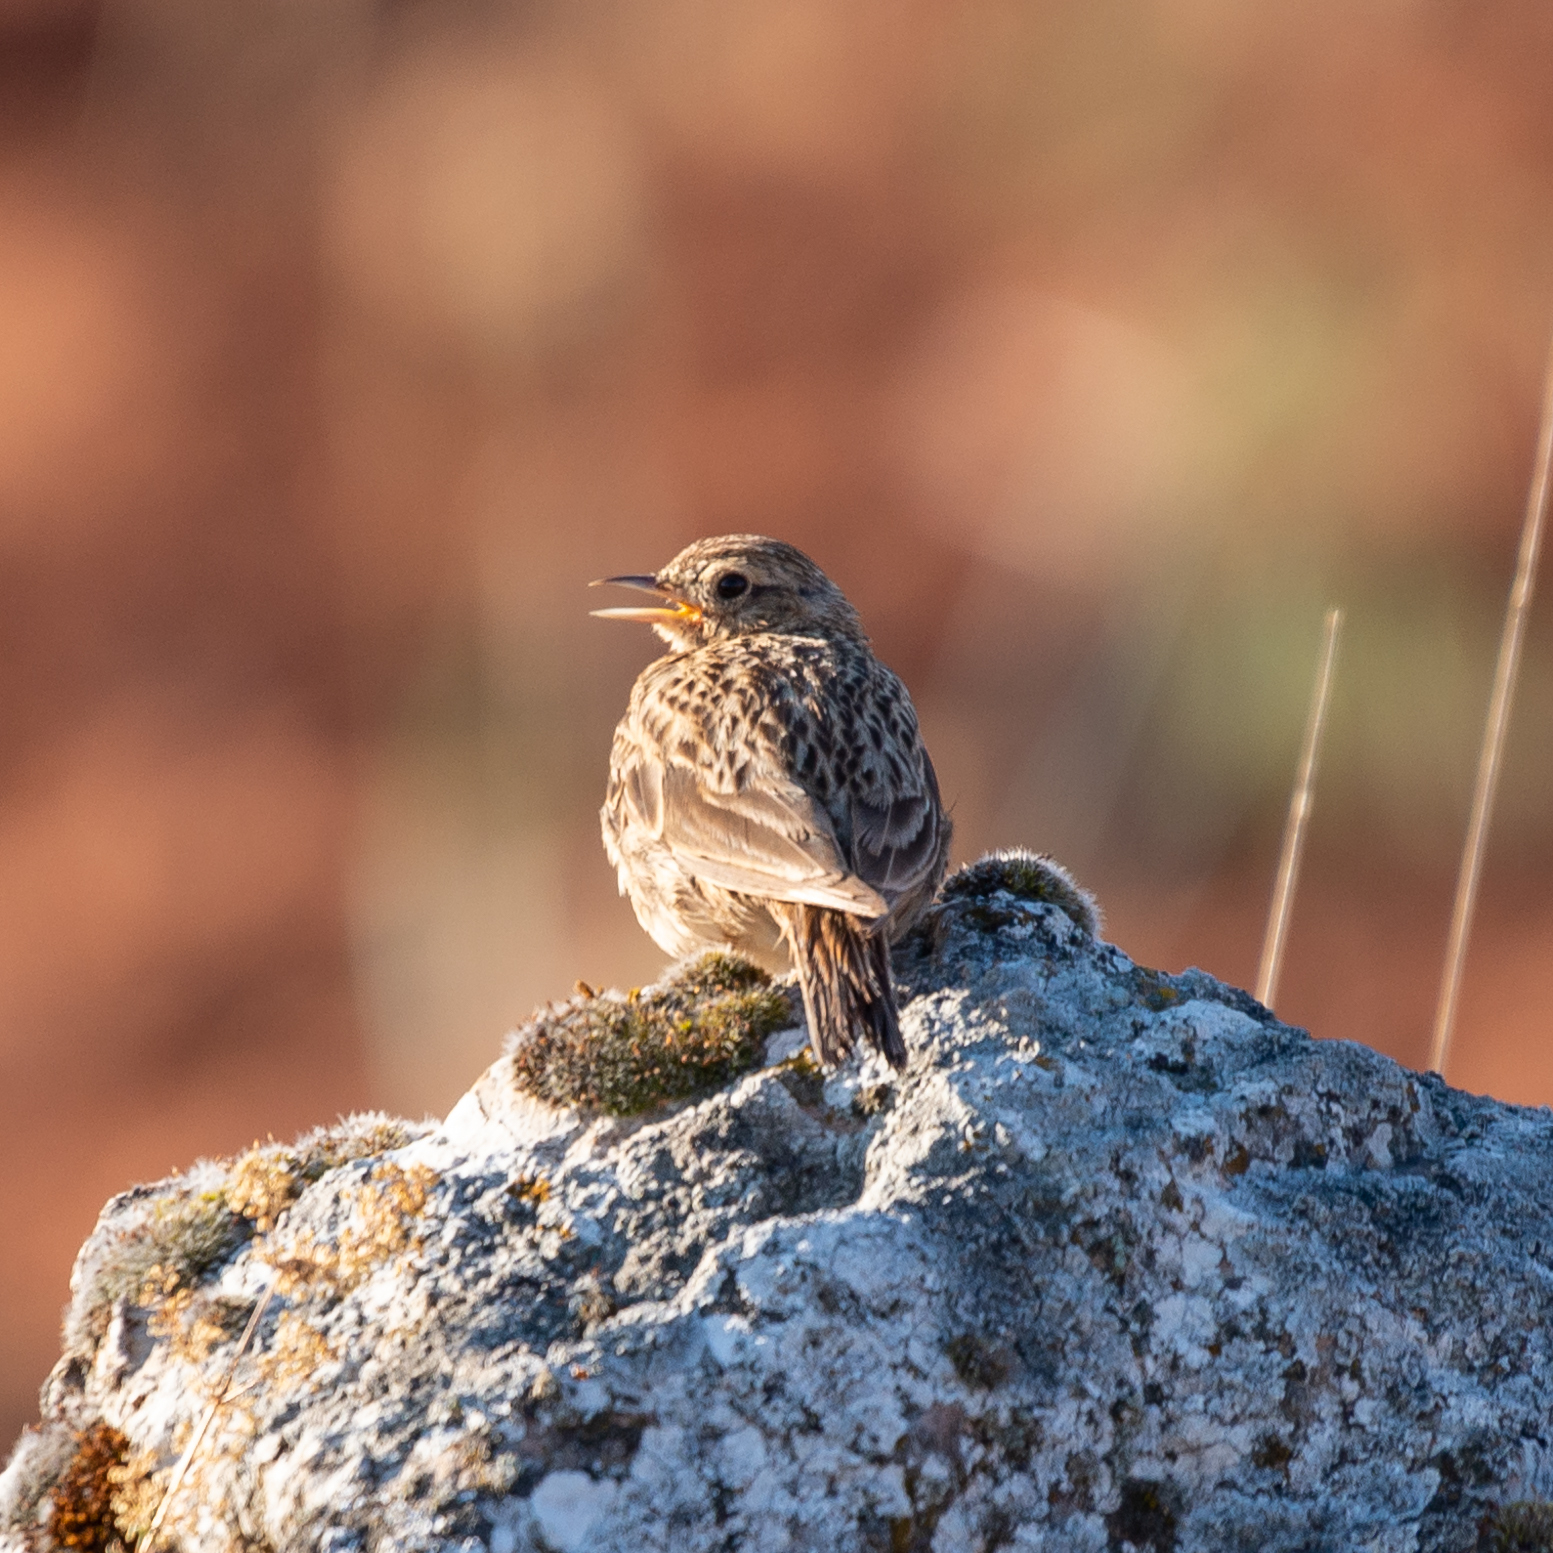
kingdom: Animalia
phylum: Chordata
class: Aves
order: Passeriformes
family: Alaudidae
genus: Alauda
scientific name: Alauda arvensis
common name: Eurasian skylark
